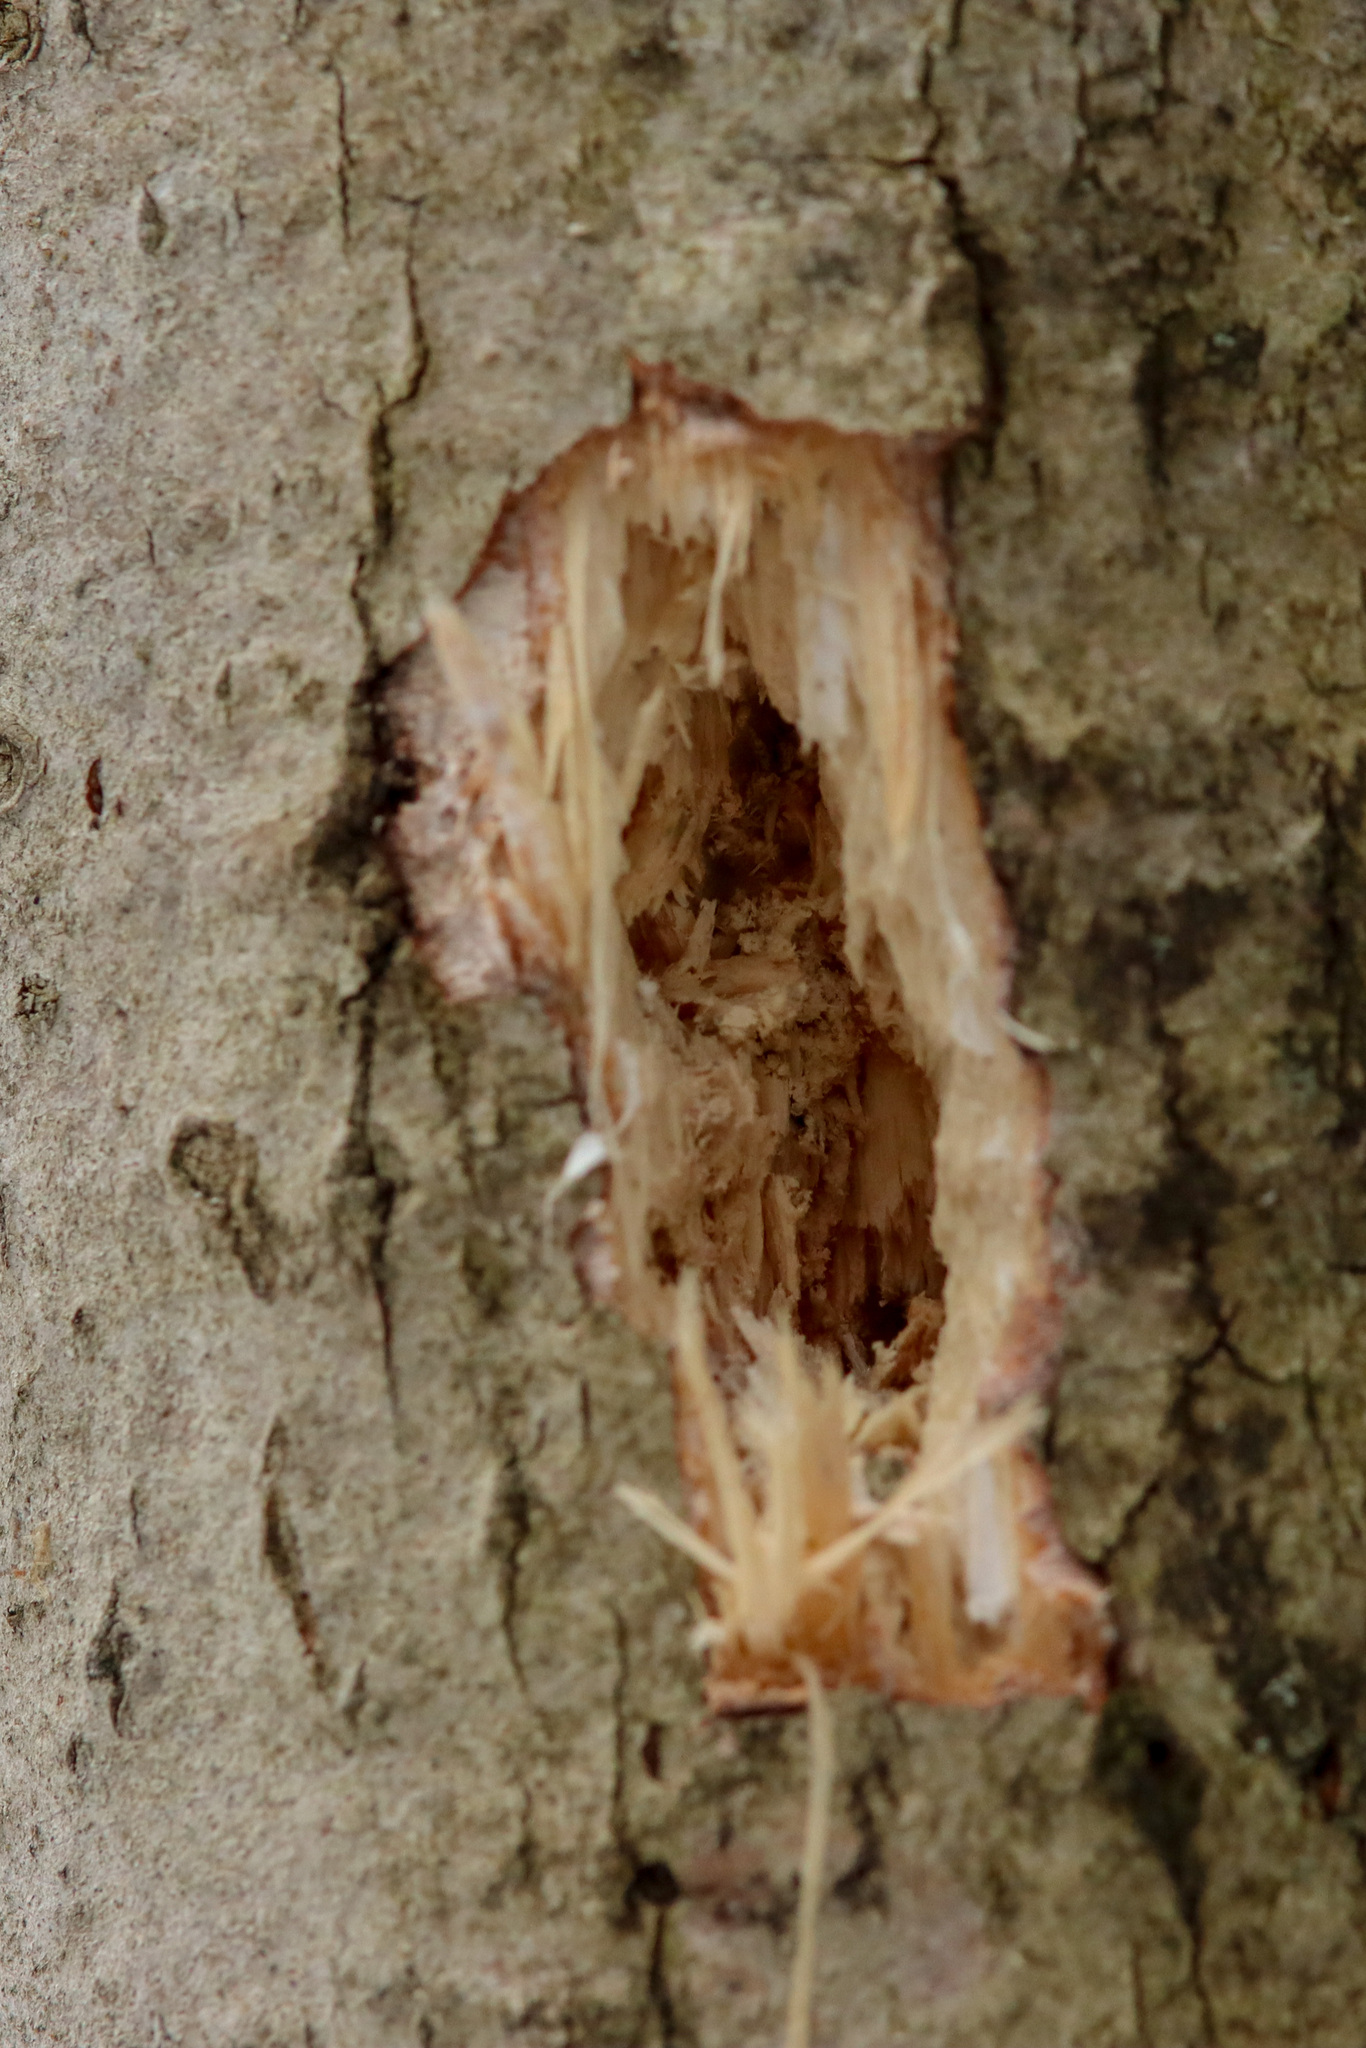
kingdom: Animalia
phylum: Chordata
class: Aves
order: Piciformes
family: Picidae
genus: Dryocopus
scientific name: Dryocopus pileatus
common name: Pileated woodpecker
